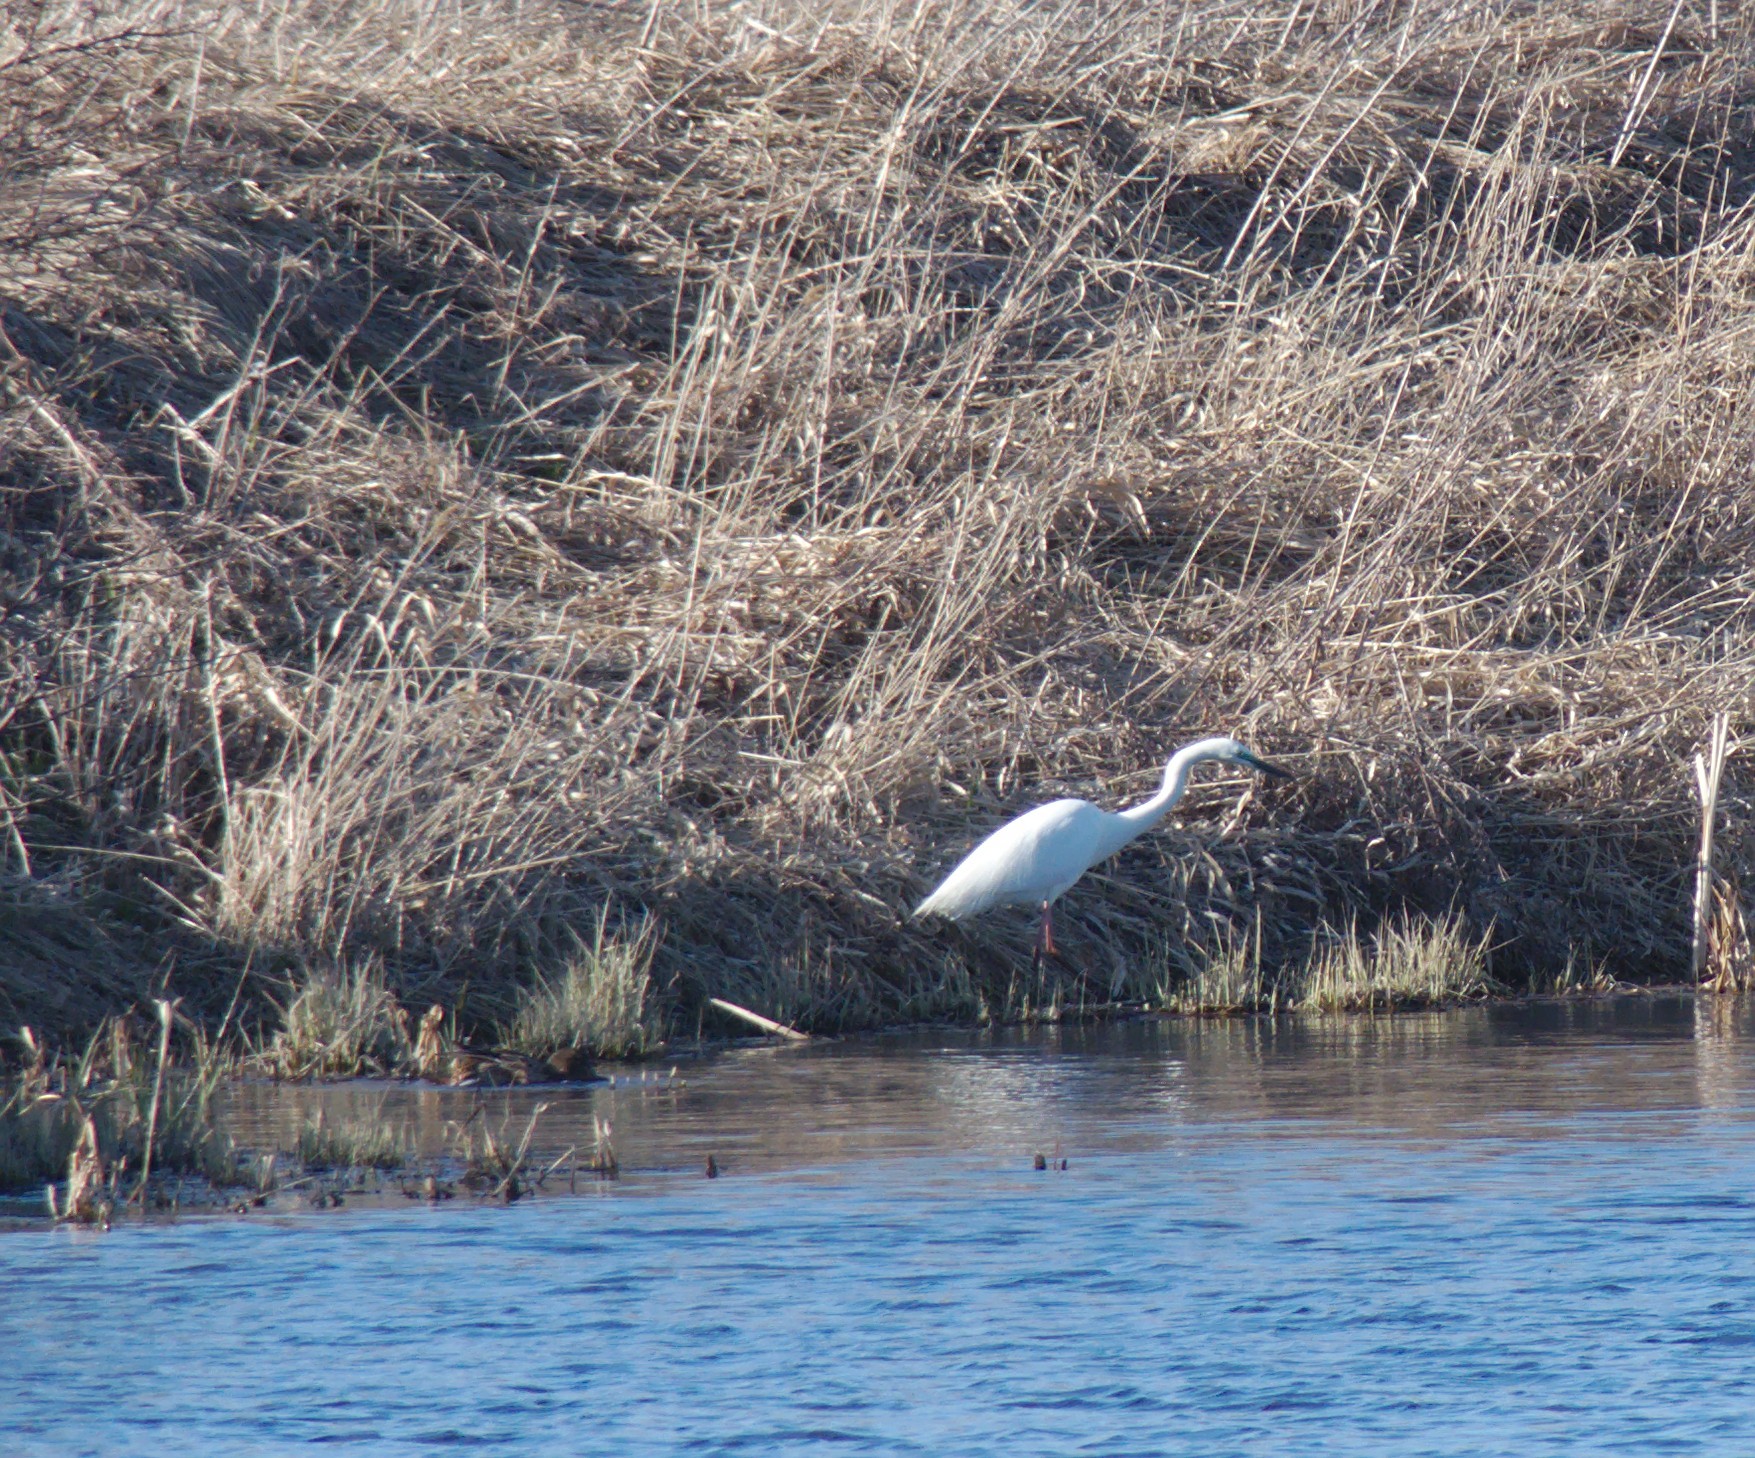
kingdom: Animalia
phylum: Chordata
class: Aves
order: Pelecaniformes
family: Ardeidae
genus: Ardea
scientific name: Ardea alba
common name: Great egret
